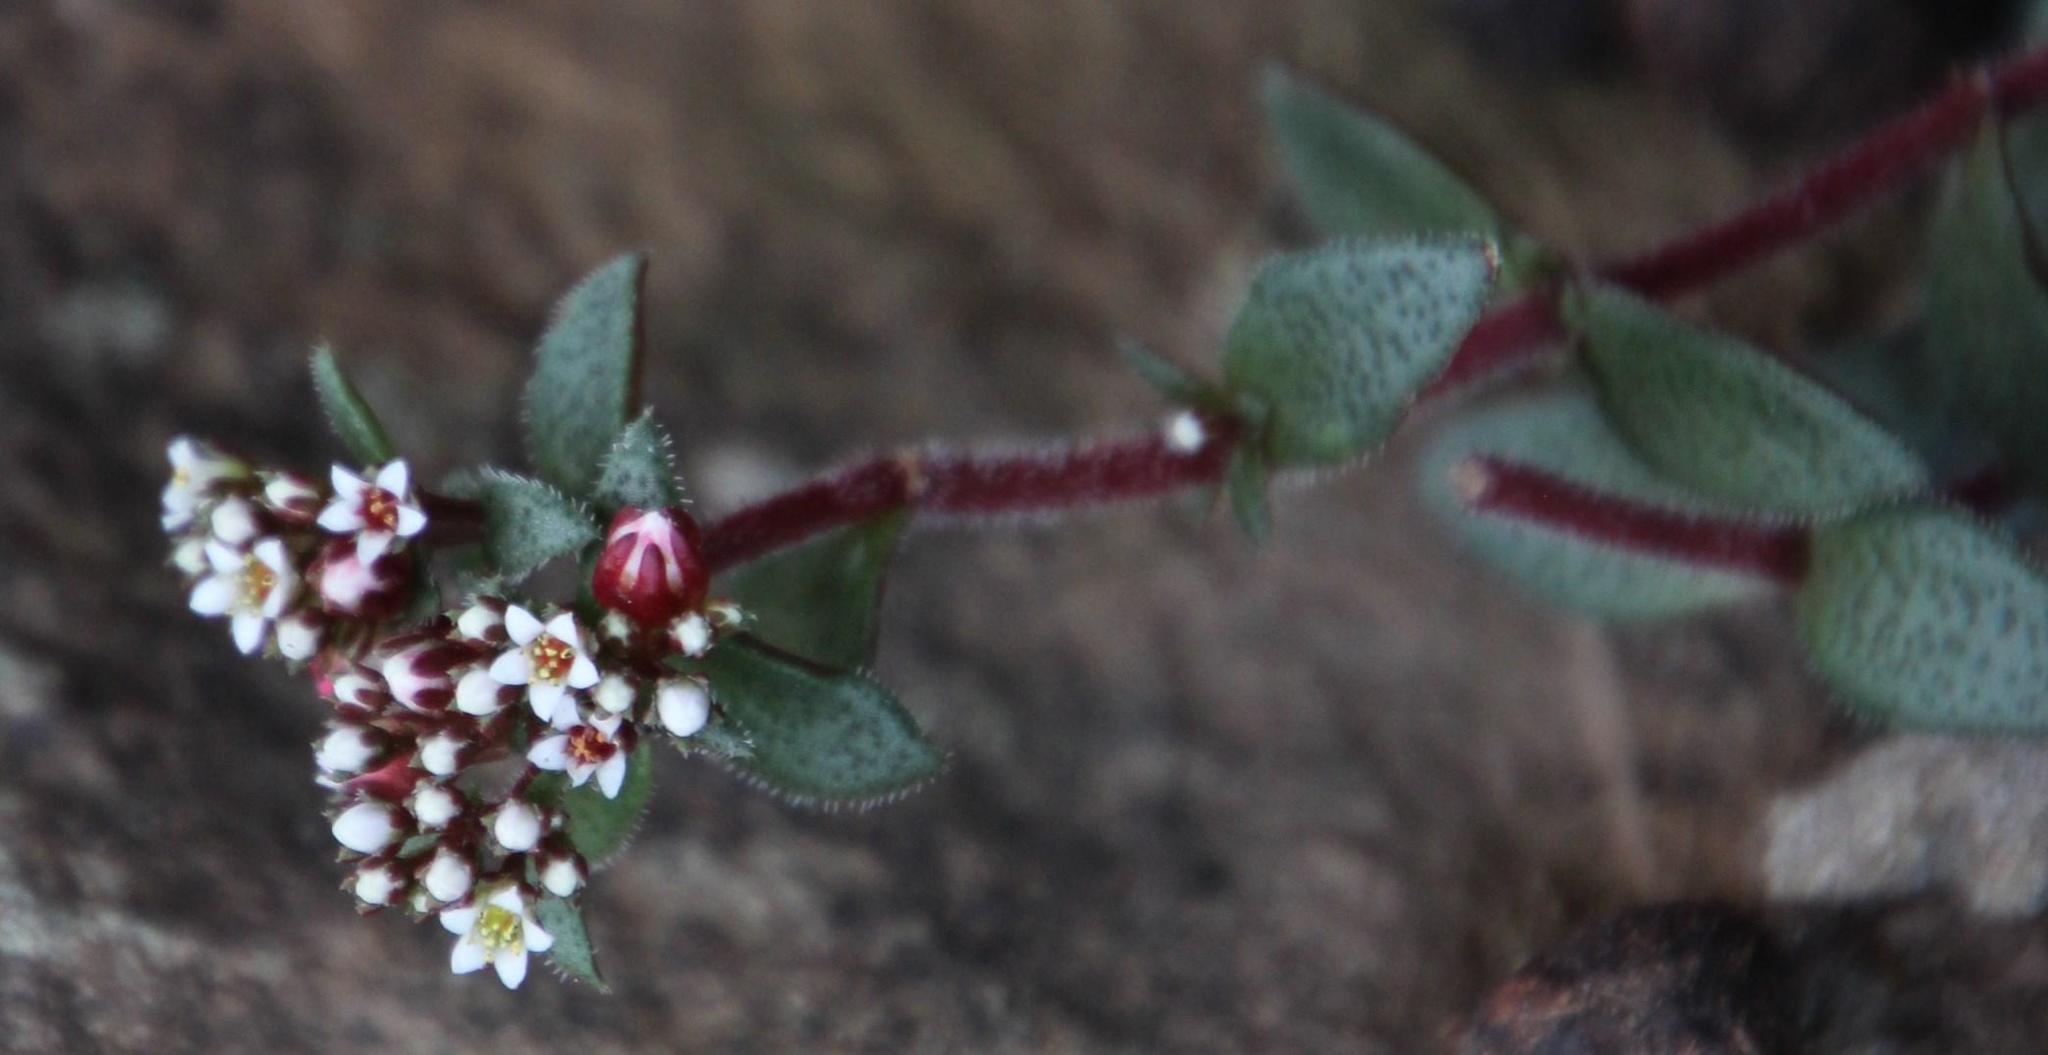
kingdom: Plantae
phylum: Tracheophyta
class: Magnoliopsida
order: Saxifragales
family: Crassulaceae
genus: Crassula
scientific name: Crassula cooperi
